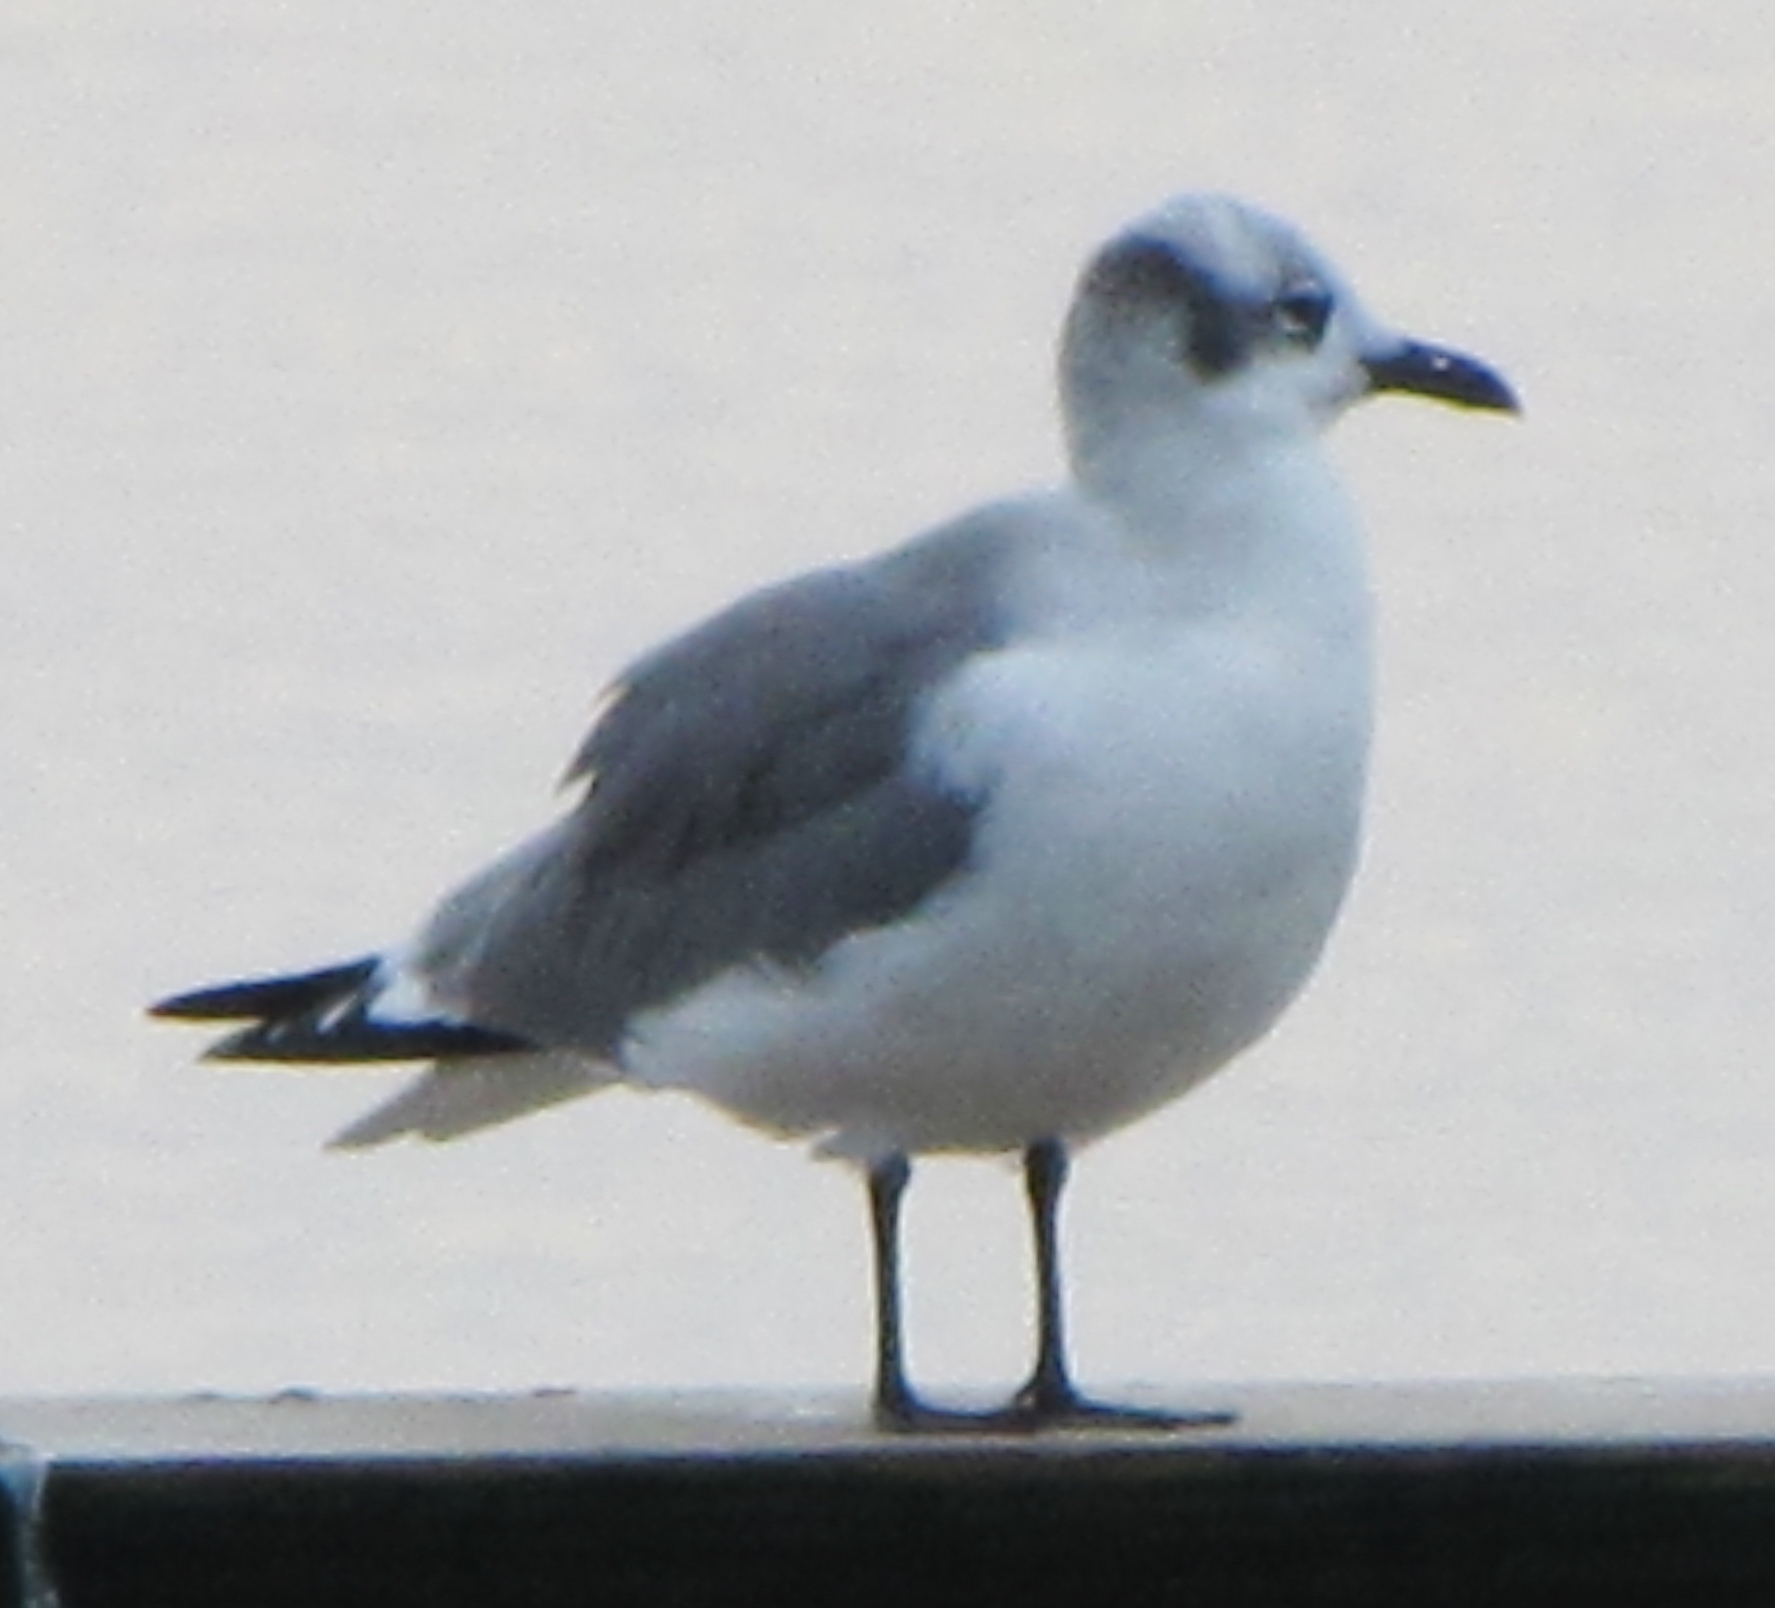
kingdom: Animalia
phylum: Chordata
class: Aves
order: Charadriiformes
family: Laridae
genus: Leucophaeus
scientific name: Leucophaeus atricilla
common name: Laughing gull
